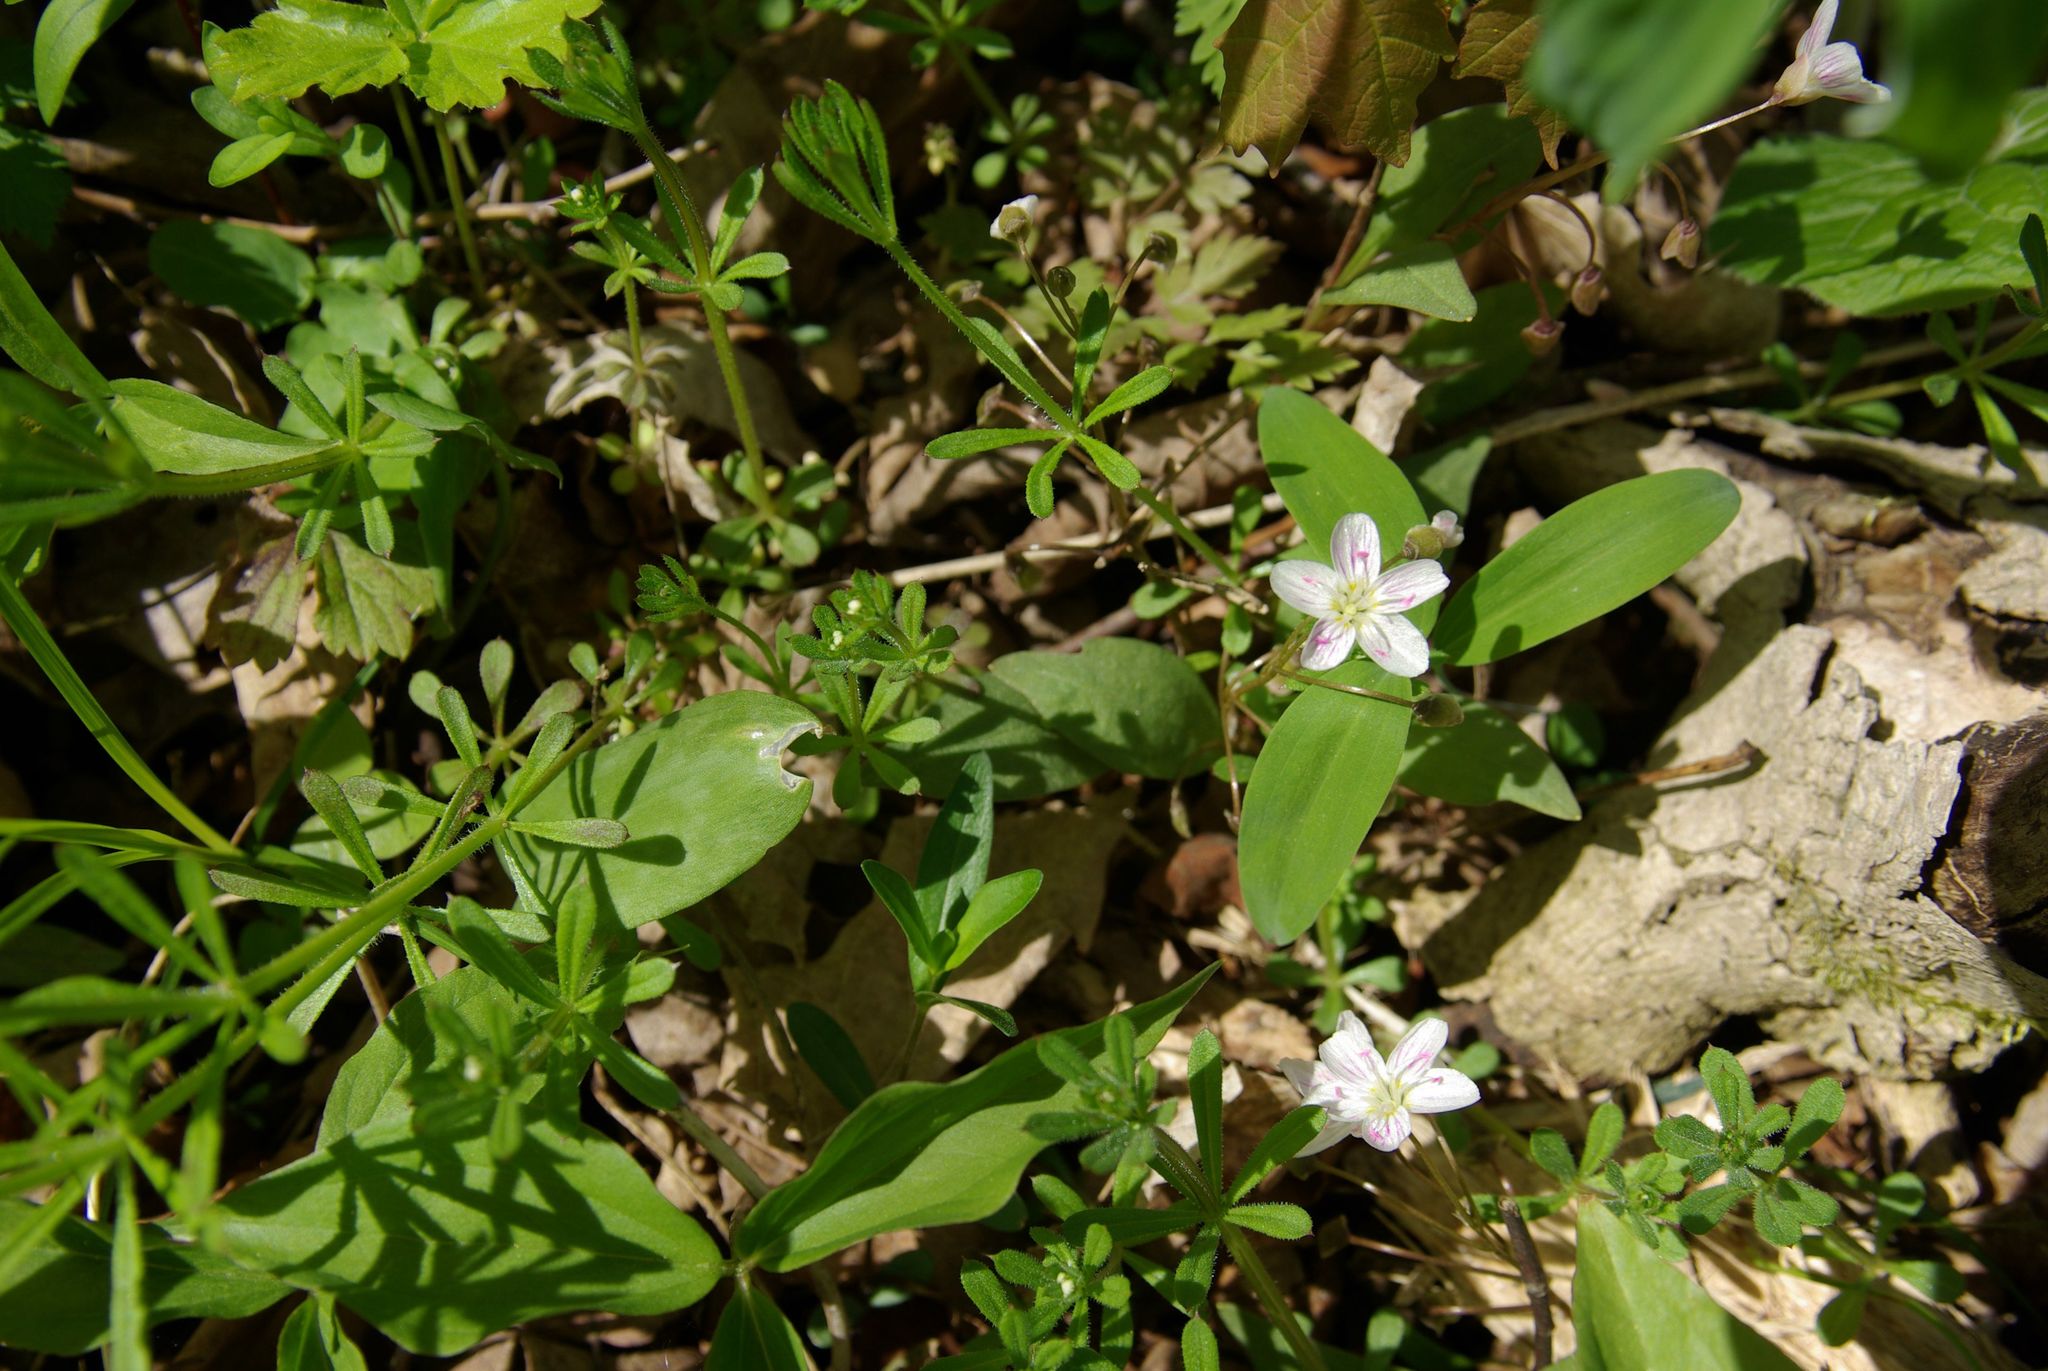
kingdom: Plantae
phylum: Tracheophyta
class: Magnoliopsida
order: Caryophyllales
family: Montiaceae
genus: Claytonia
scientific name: Claytonia caroliniana
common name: Carolina spring beauty
